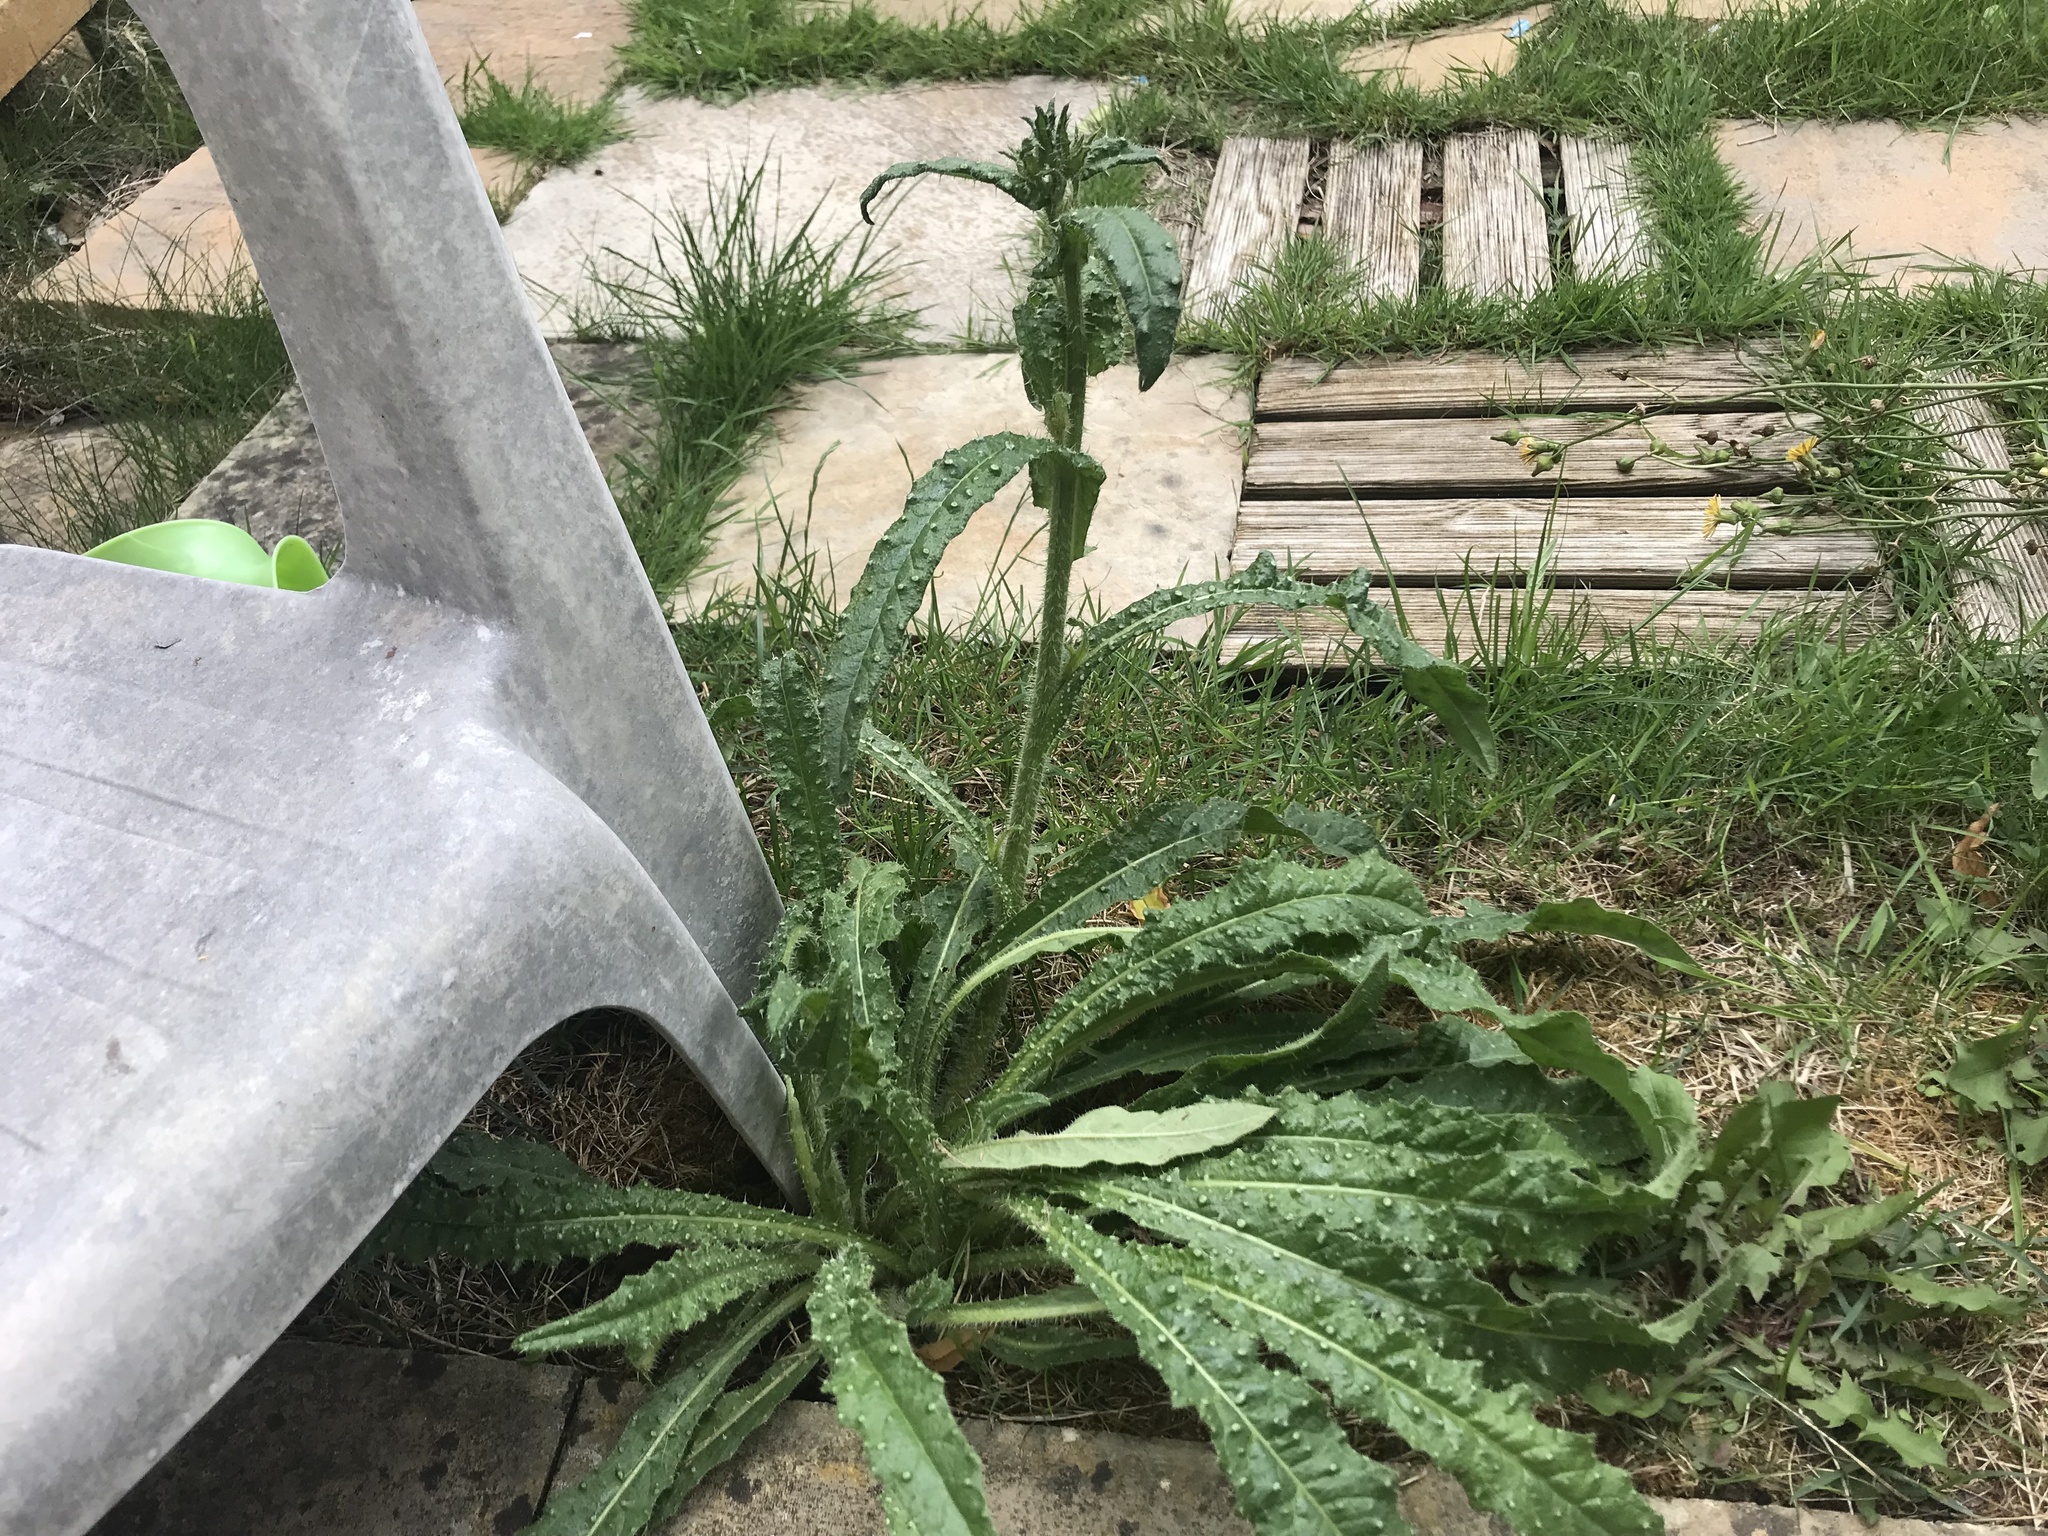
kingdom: Plantae
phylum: Tracheophyta
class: Magnoliopsida
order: Asterales
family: Asteraceae
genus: Helminthotheca
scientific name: Helminthotheca echioides
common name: Ox-tongue
